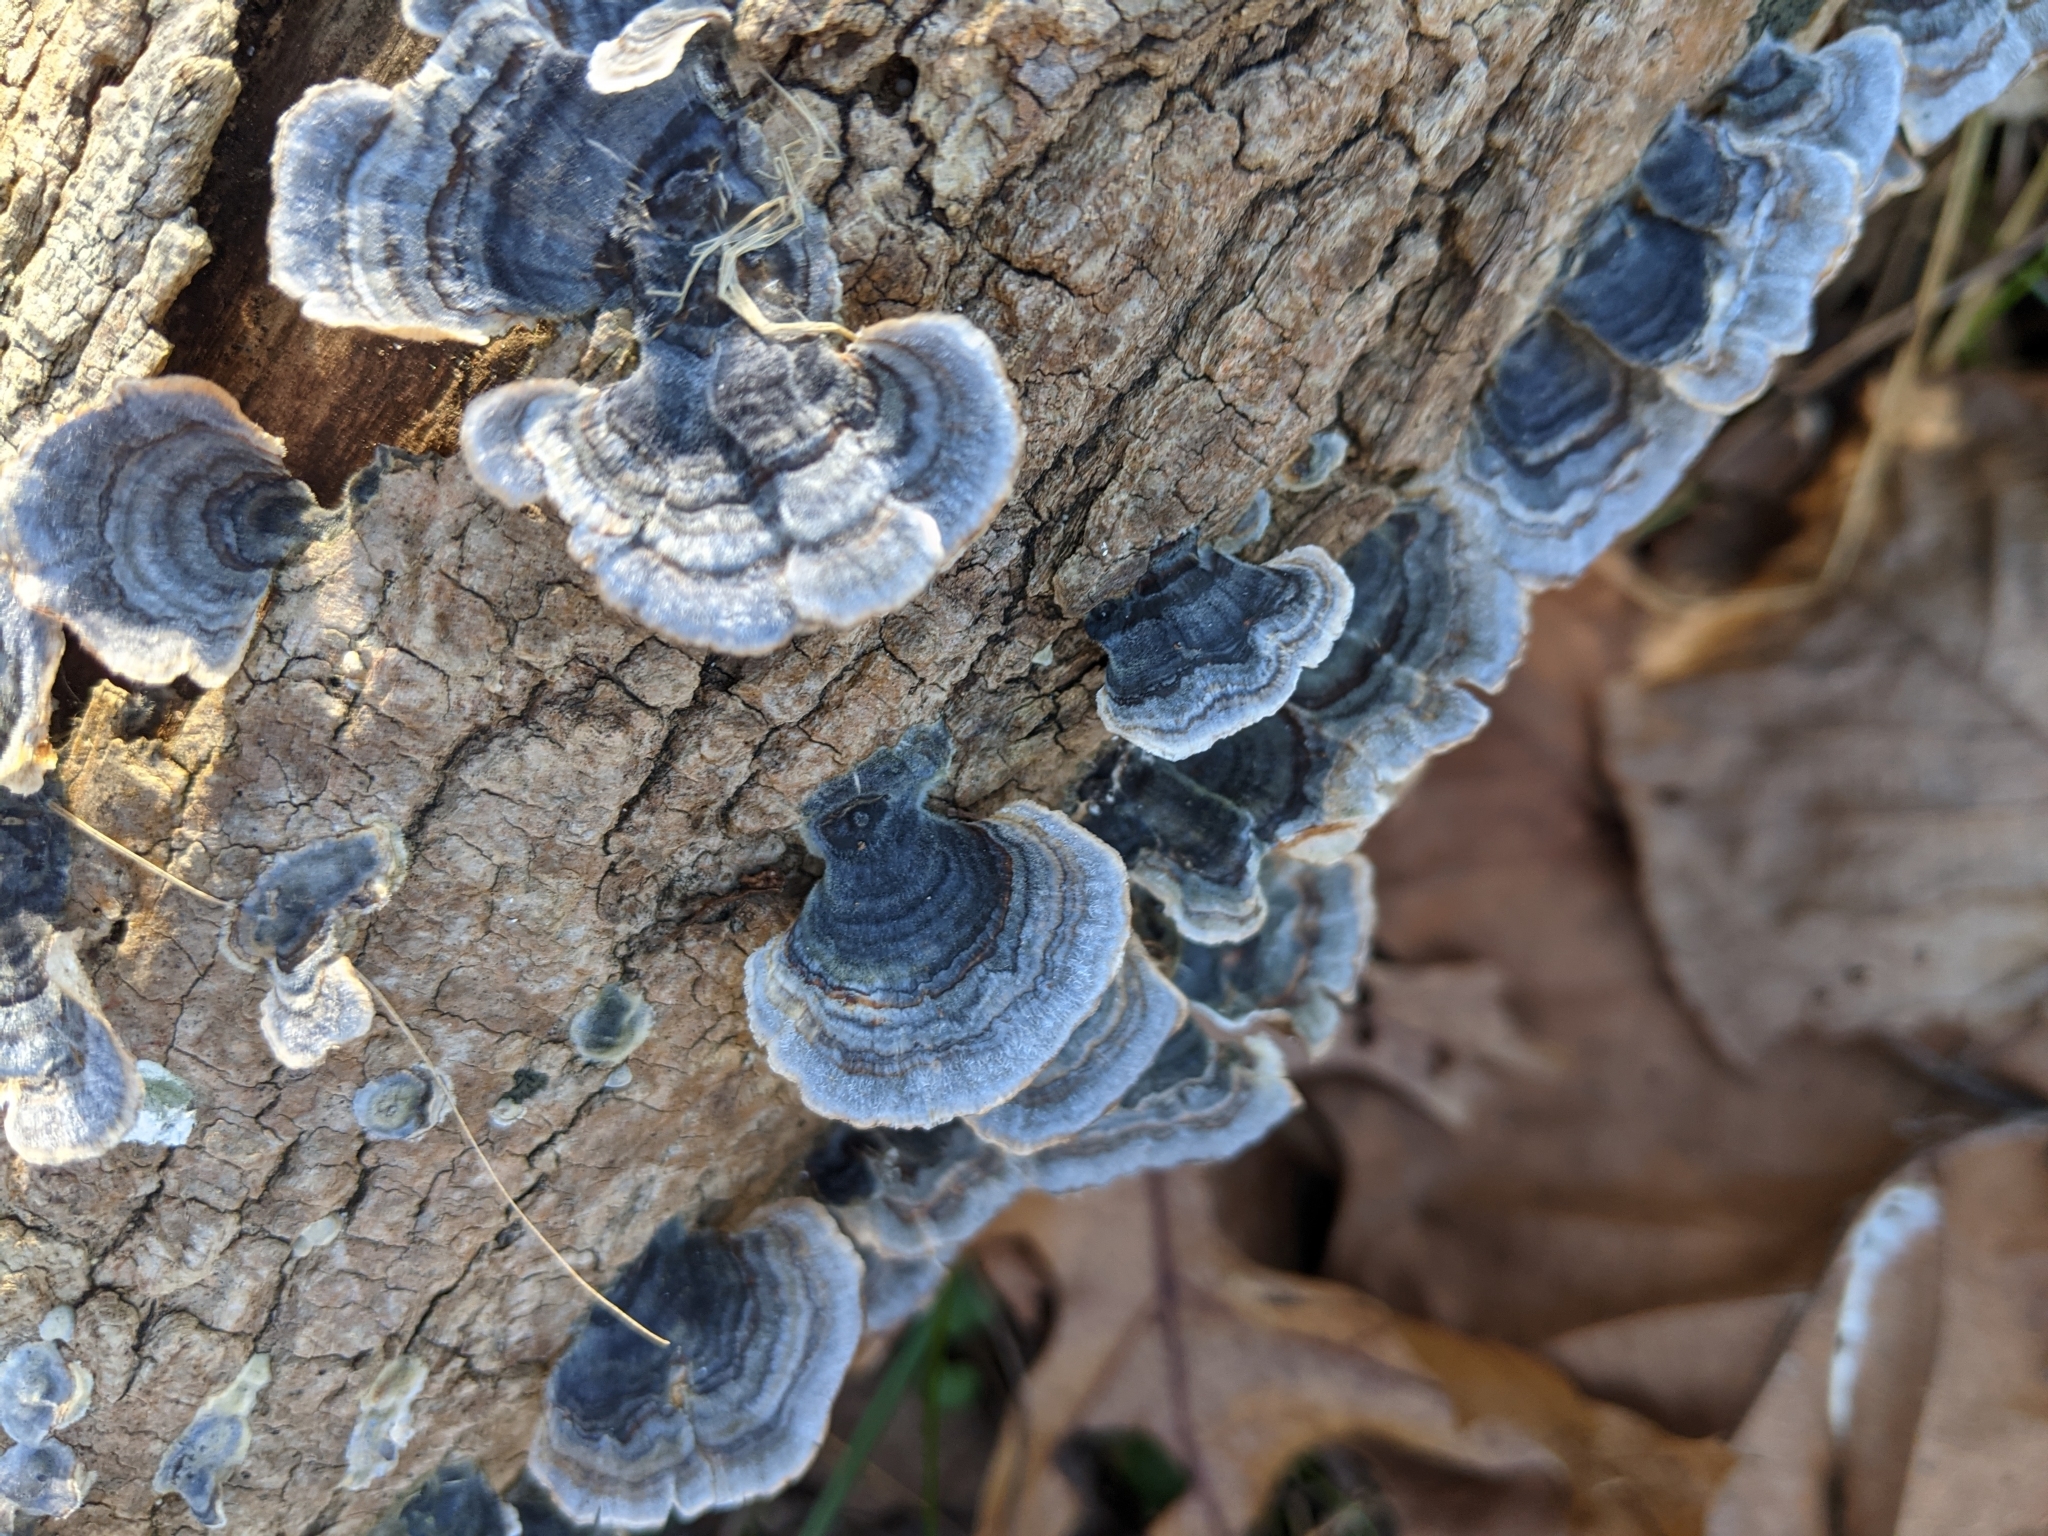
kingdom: Fungi
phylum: Basidiomycota
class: Agaricomycetes
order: Polyporales
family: Polyporaceae
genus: Trametes
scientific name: Trametes versicolor
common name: Turkeytail
